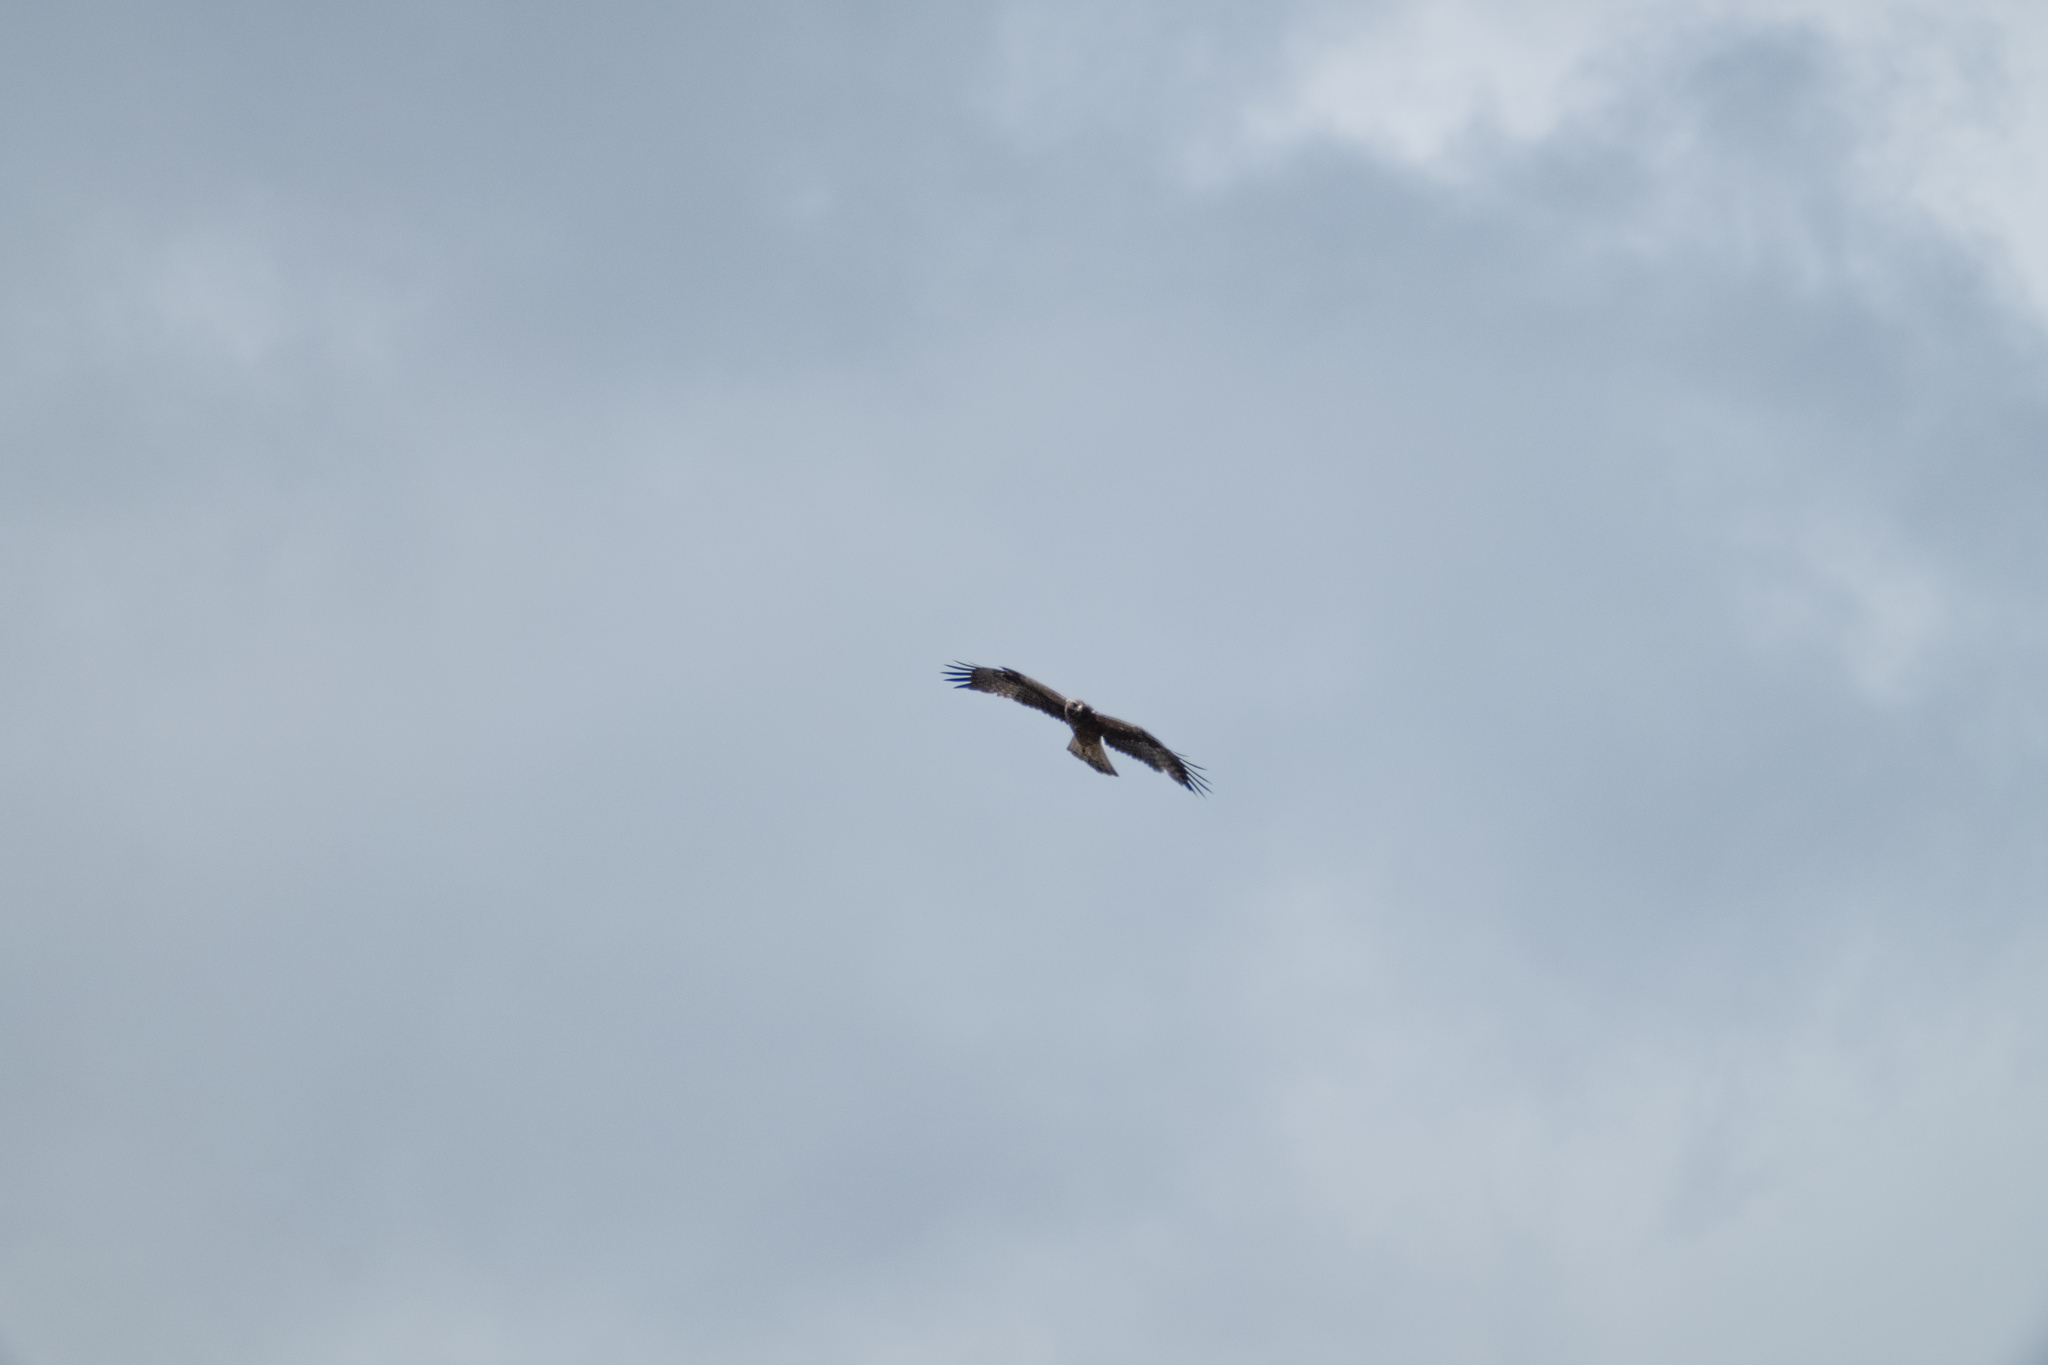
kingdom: Animalia
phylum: Chordata
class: Aves
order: Accipitriformes
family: Accipitridae
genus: Hieraaetus
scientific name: Hieraaetus pennatus
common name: Booted eagle
